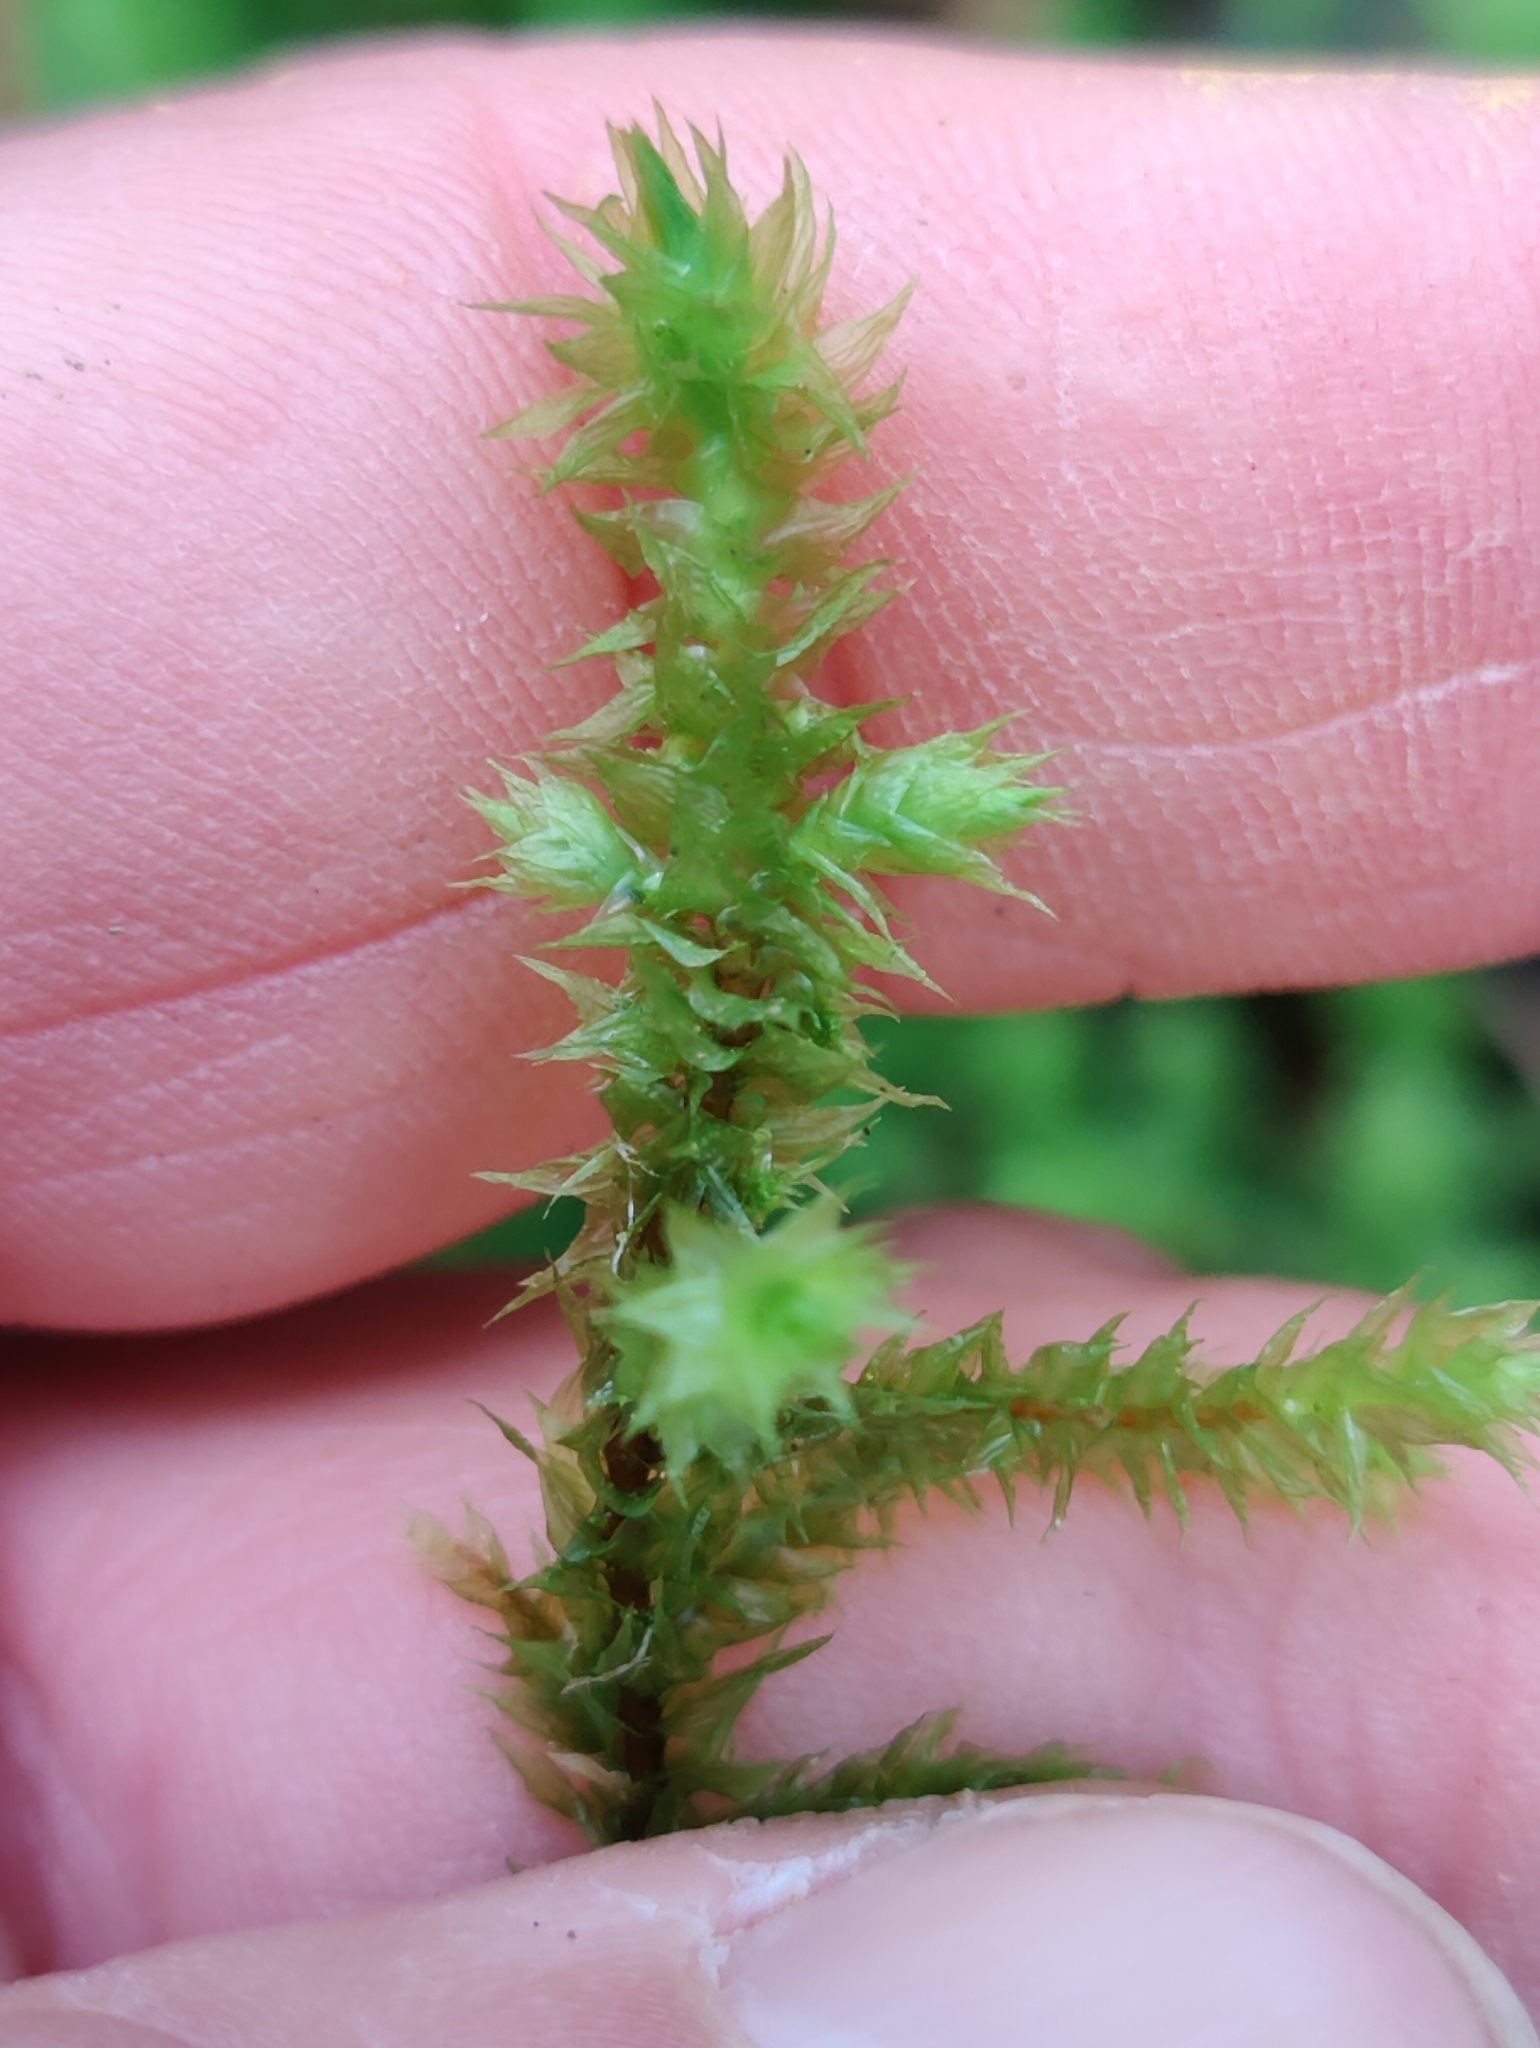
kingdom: Plantae
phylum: Bryophyta
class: Bryopsida
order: Hypnales
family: Hylocomiaceae
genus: Hylocomiadelphus
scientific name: Hylocomiadelphus triquetrus
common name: Rough goose neck moss
